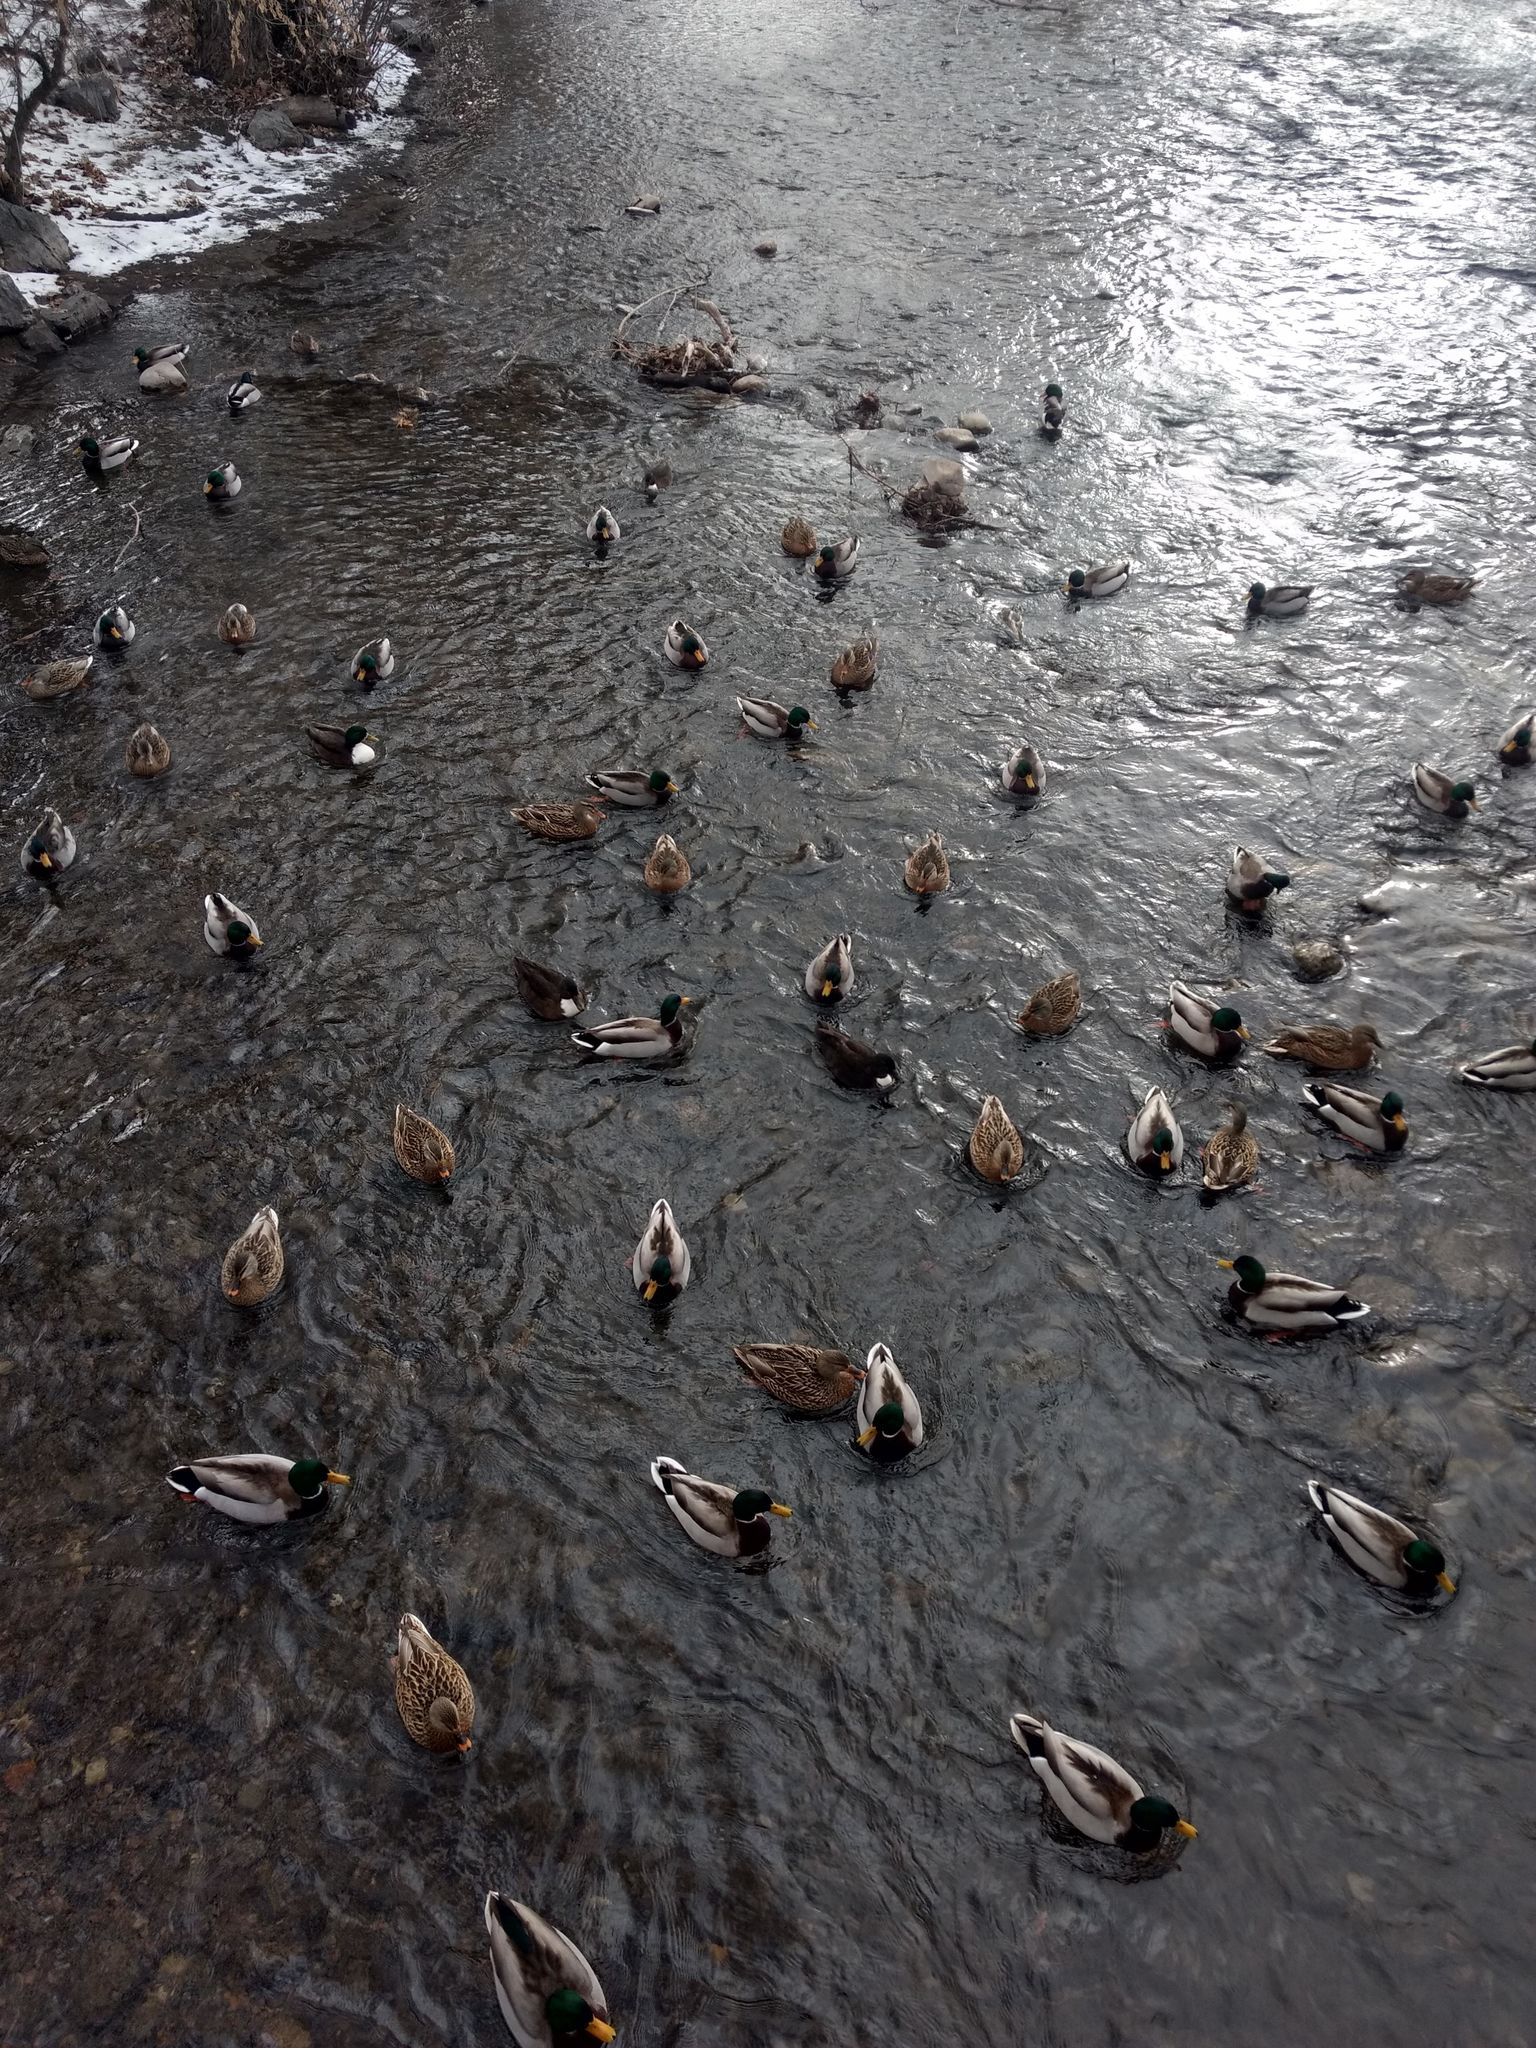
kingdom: Animalia
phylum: Chordata
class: Aves
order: Anseriformes
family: Anatidae
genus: Anas
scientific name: Anas platyrhynchos
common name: Mallard
